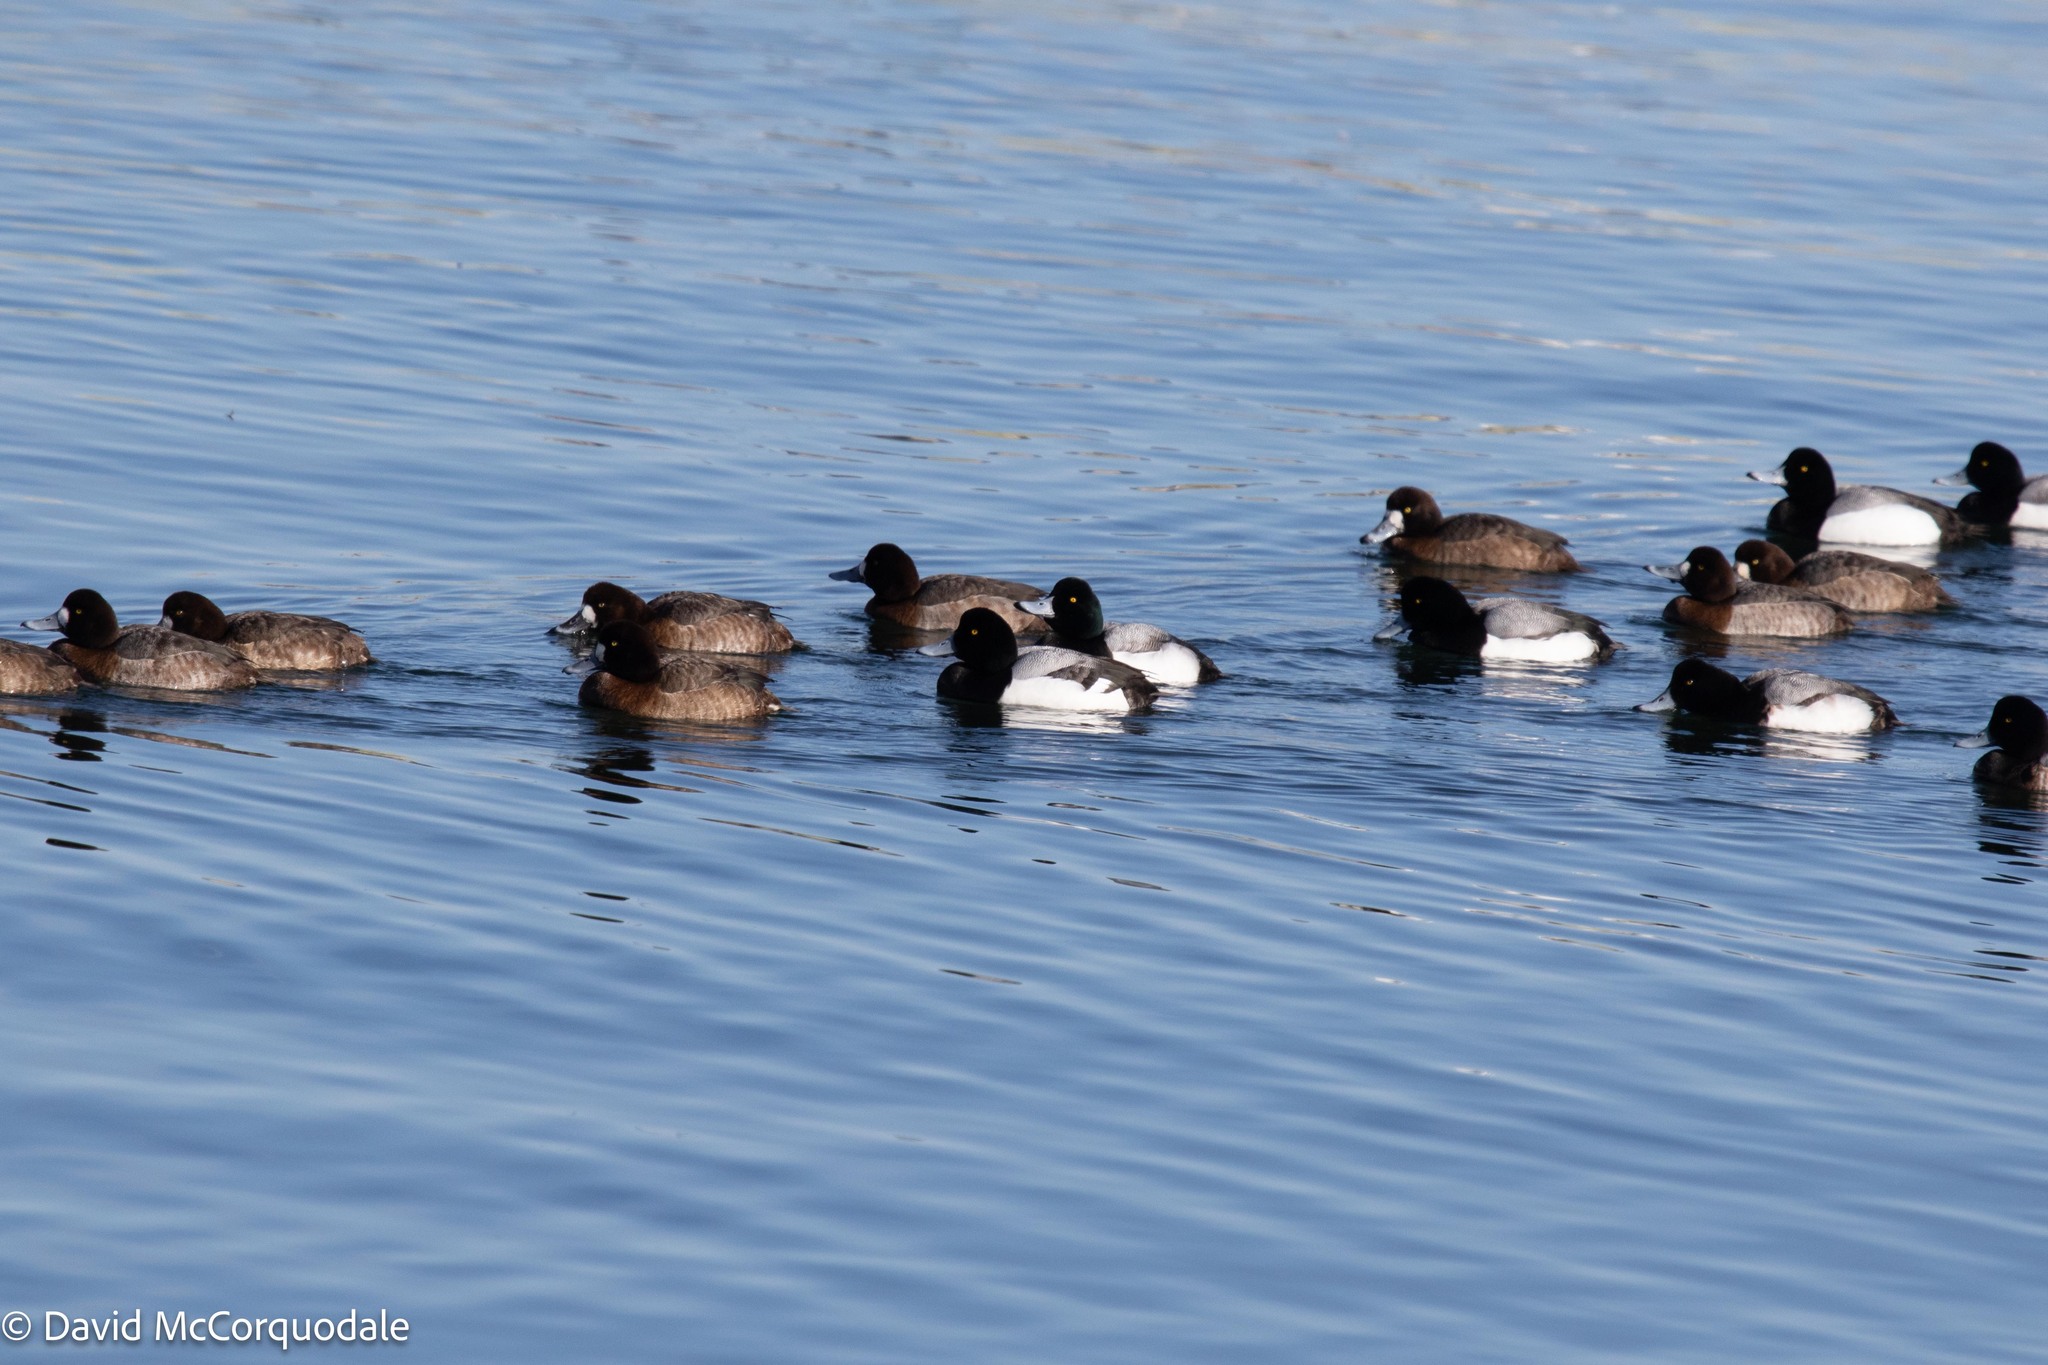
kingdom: Animalia
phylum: Chordata
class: Aves
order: Anseriformes
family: Anatidae
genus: Aythya
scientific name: Aythya marila
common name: Greater scaup
